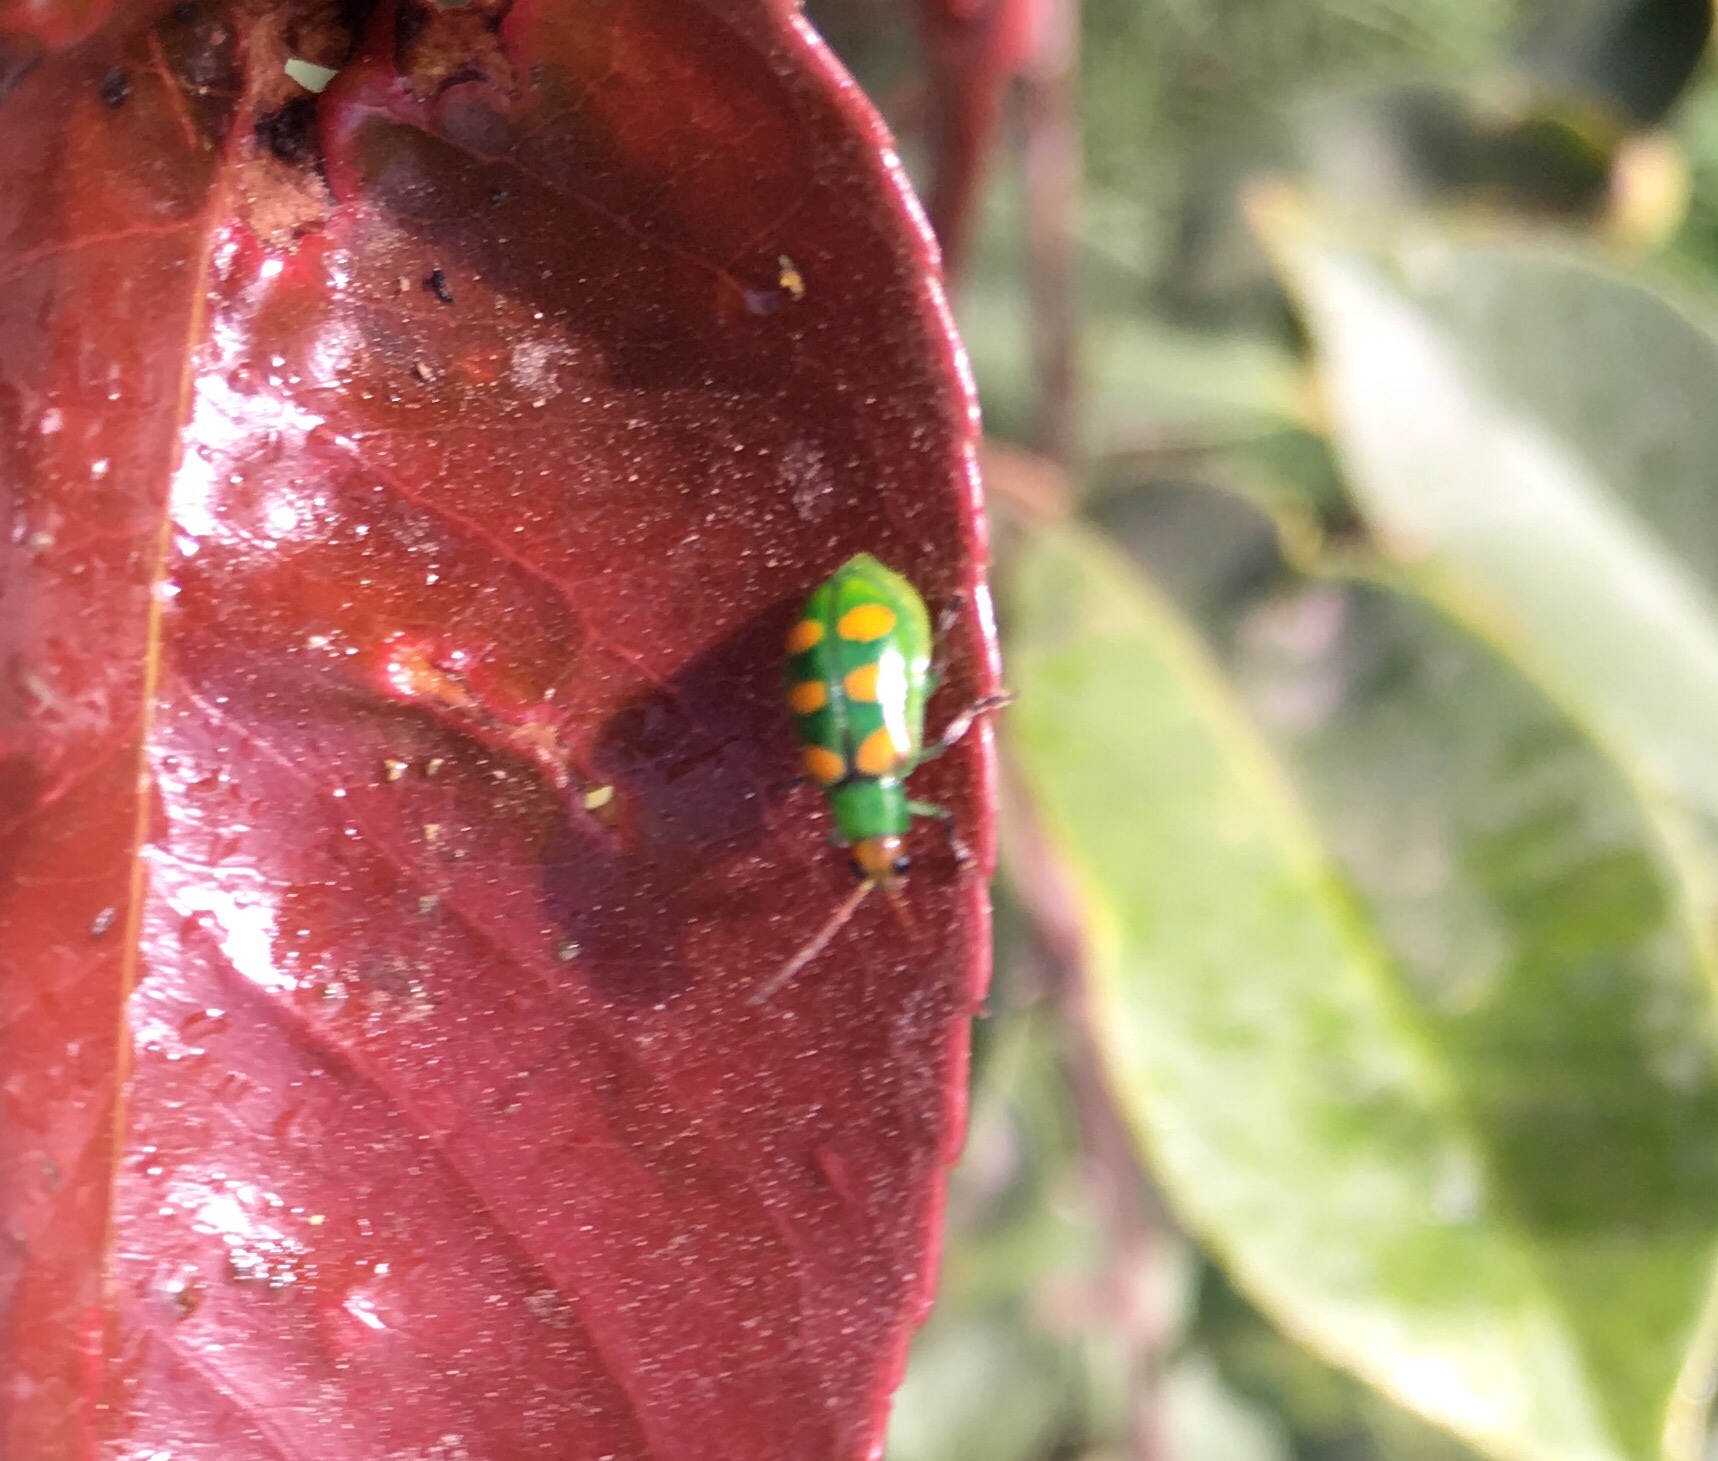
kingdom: Animalia
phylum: Arthropoda
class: Insecta
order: Coleoptera
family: Chrysomelidae
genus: Diabrotica
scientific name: Diabrotica speciosa
